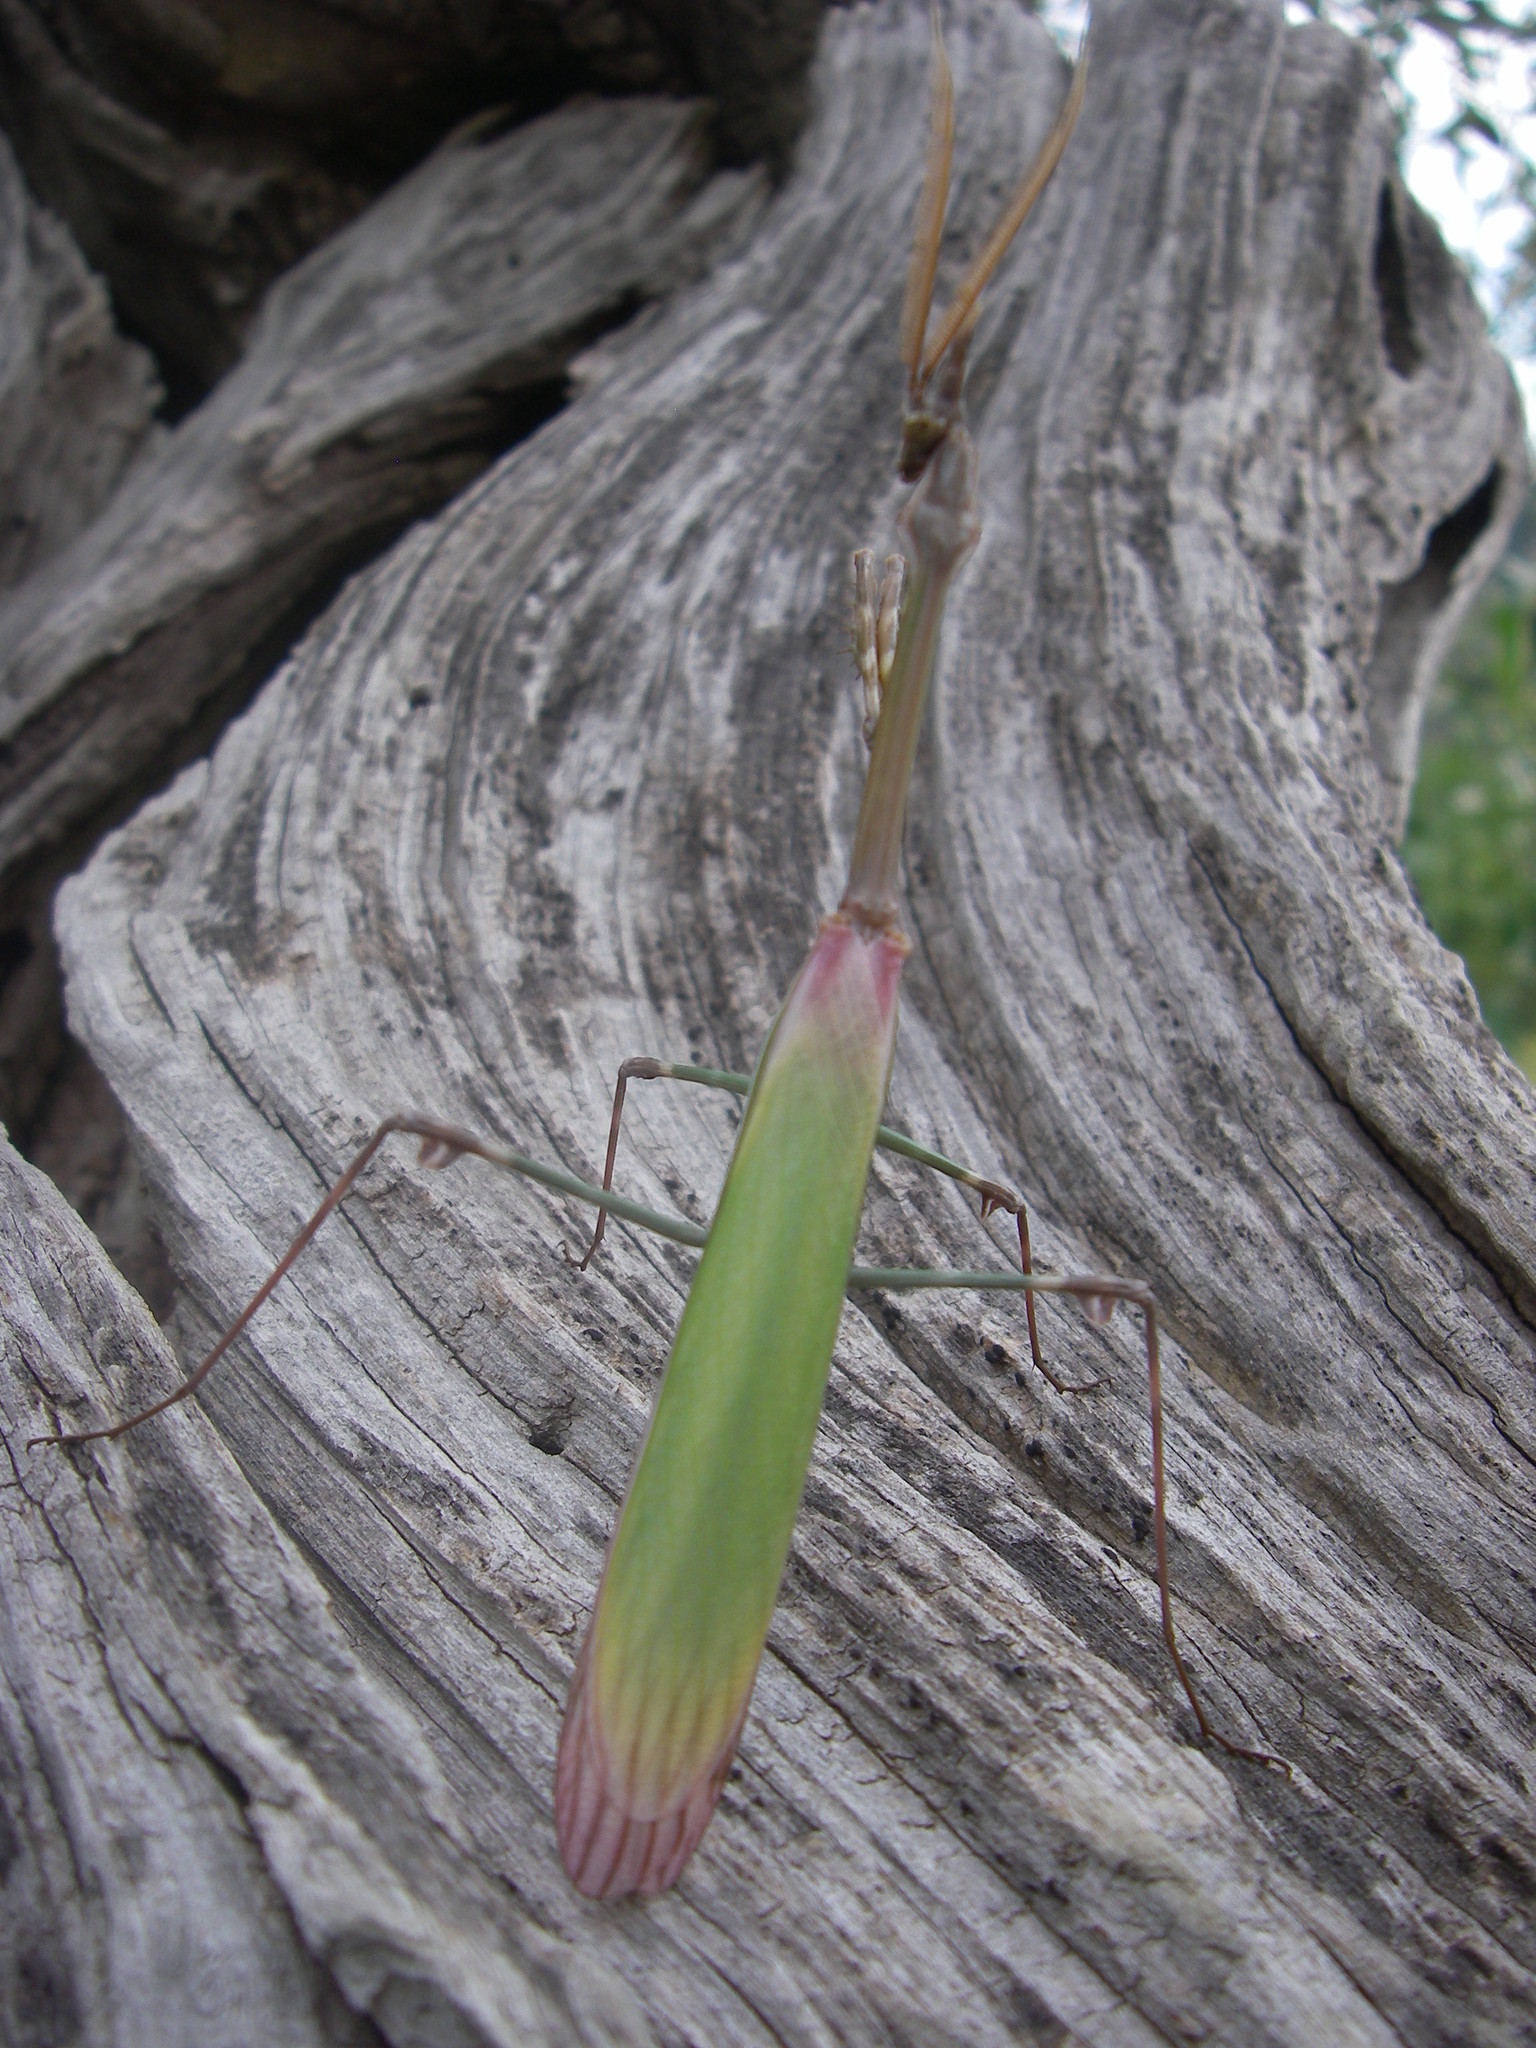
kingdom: Animalia
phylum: Arthropoda
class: Insecta
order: Mantodea
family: Empusidae
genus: Empusa
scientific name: Empusa pennata
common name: Conehead mantis
